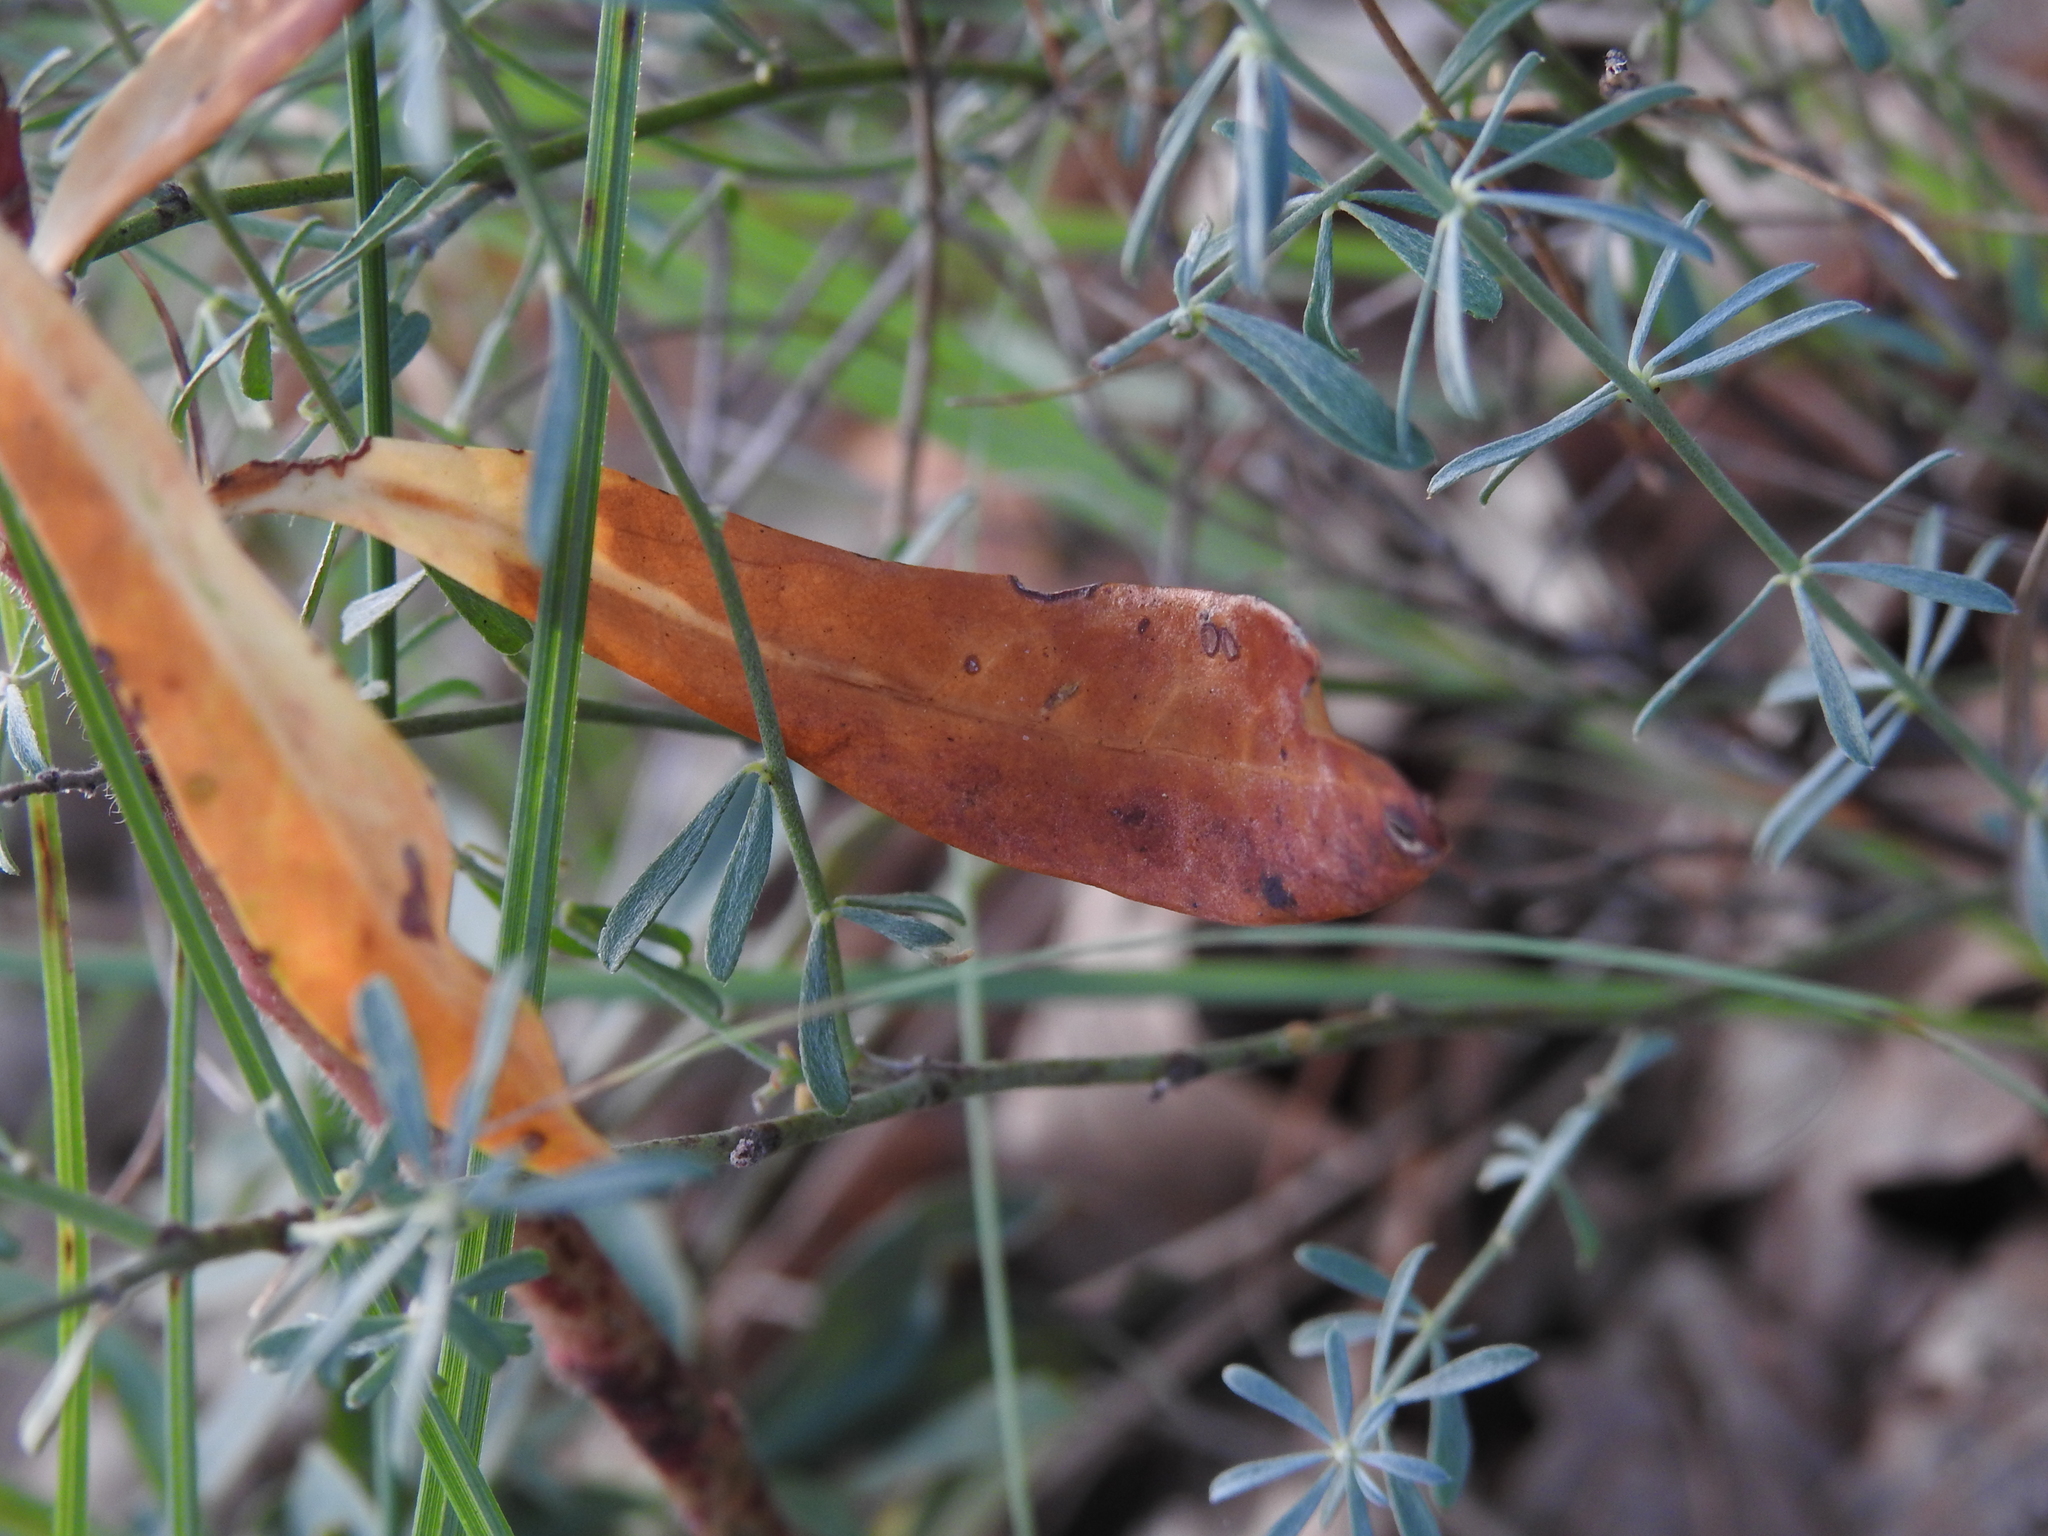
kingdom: Plantae
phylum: Tracheophyta
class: Magnoliopsida
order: Malpighiales
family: Euphorbiaceae
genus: Euphorbia
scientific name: Euphorbia amygdaloides
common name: Wood spurge
